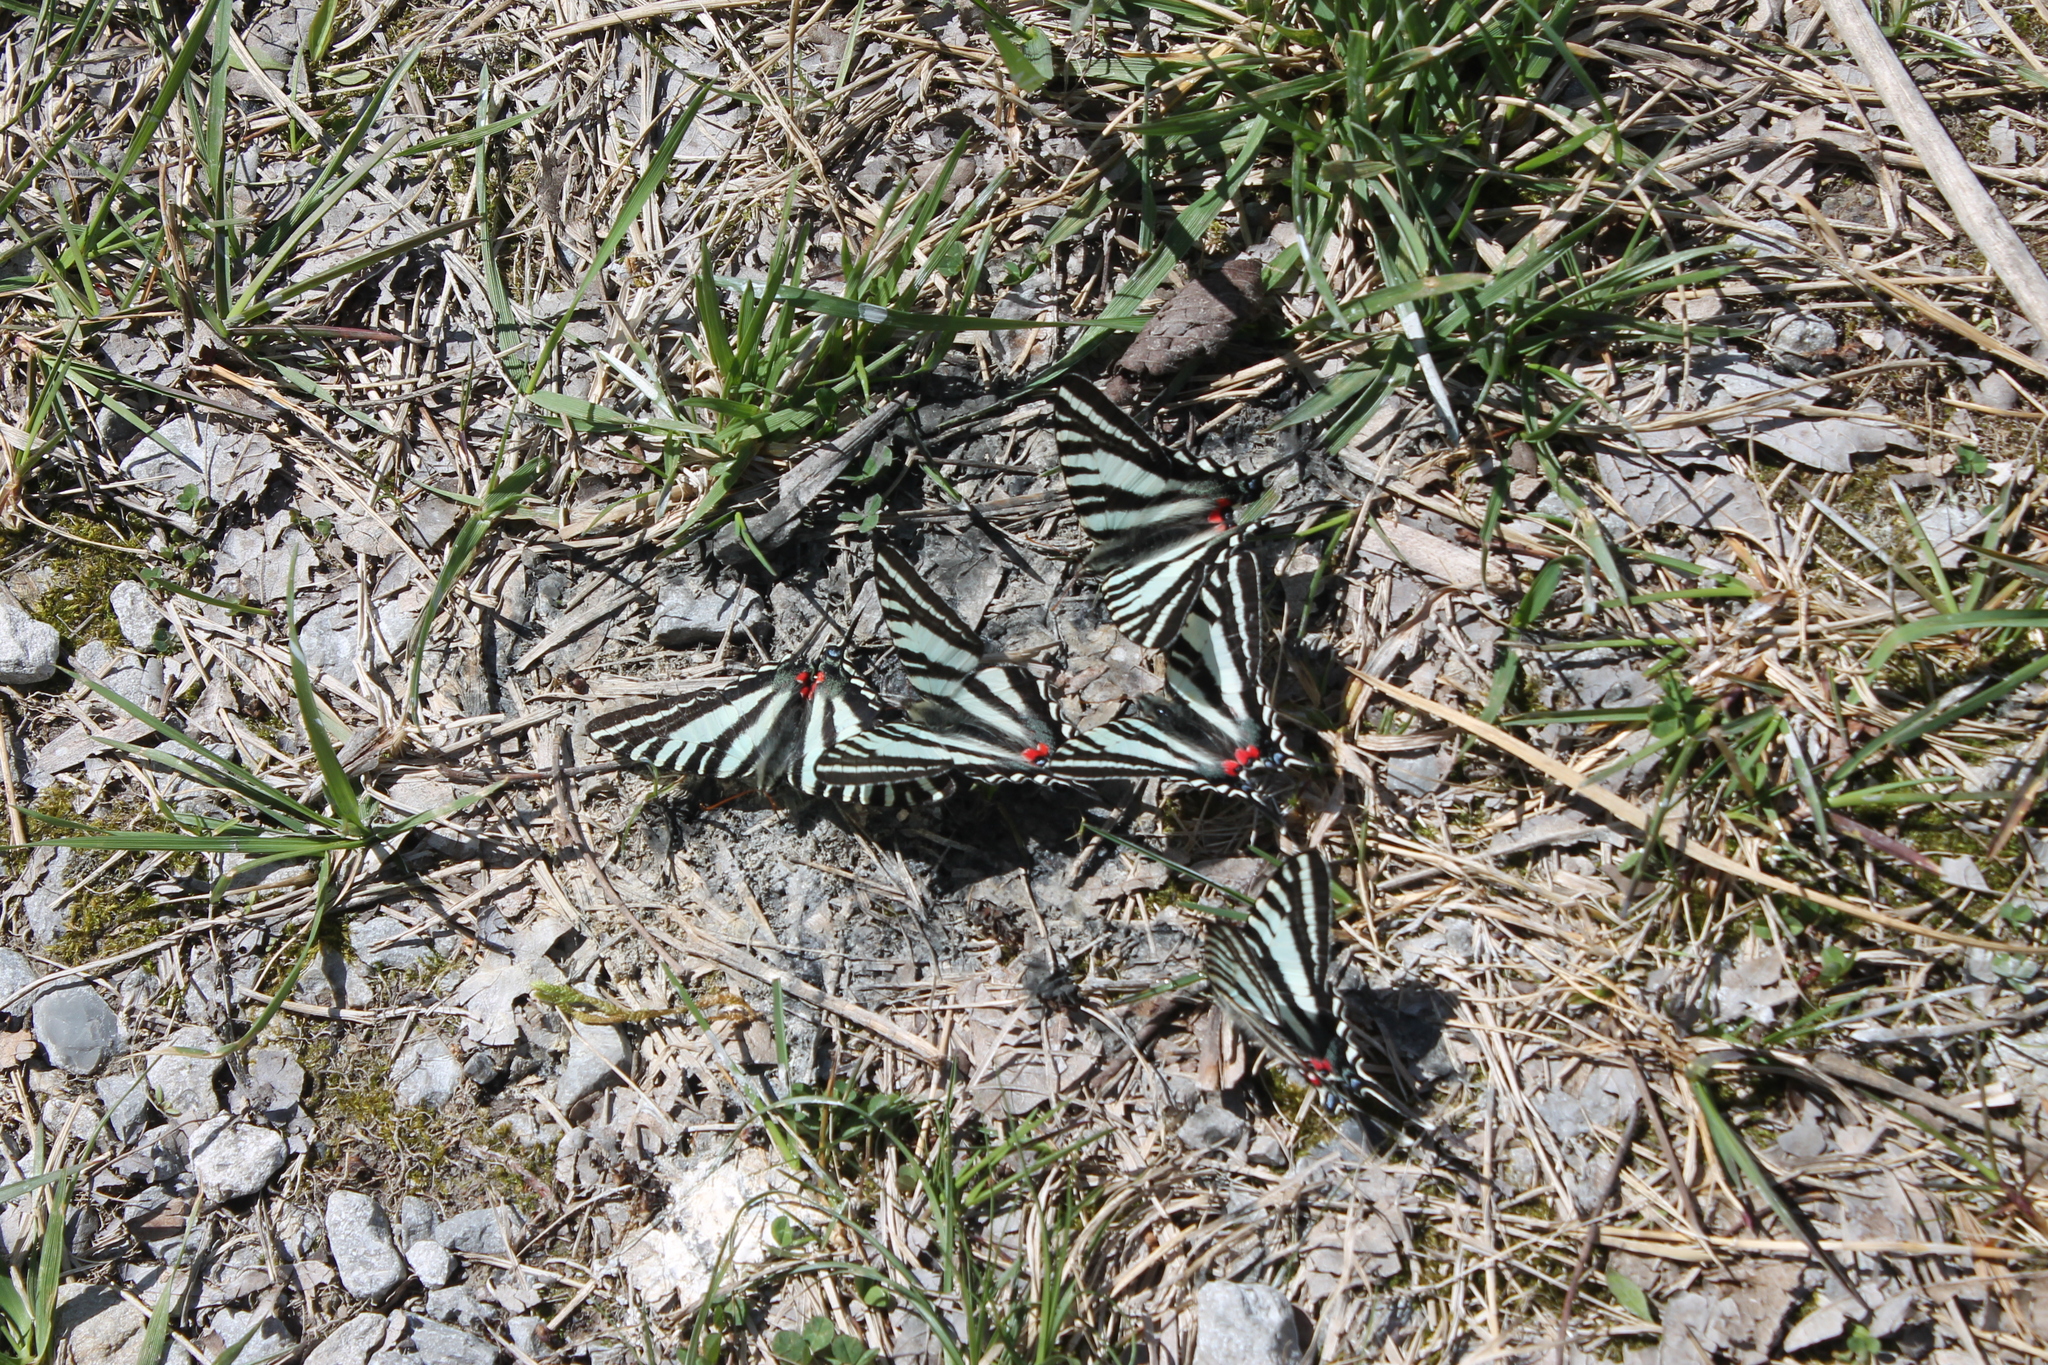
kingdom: Animalia
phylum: Arthropoda
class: Insecta
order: Lepidoptera
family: Papilionidae
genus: Protographium
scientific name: Protographium marcellus
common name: Zebra swallowtail
